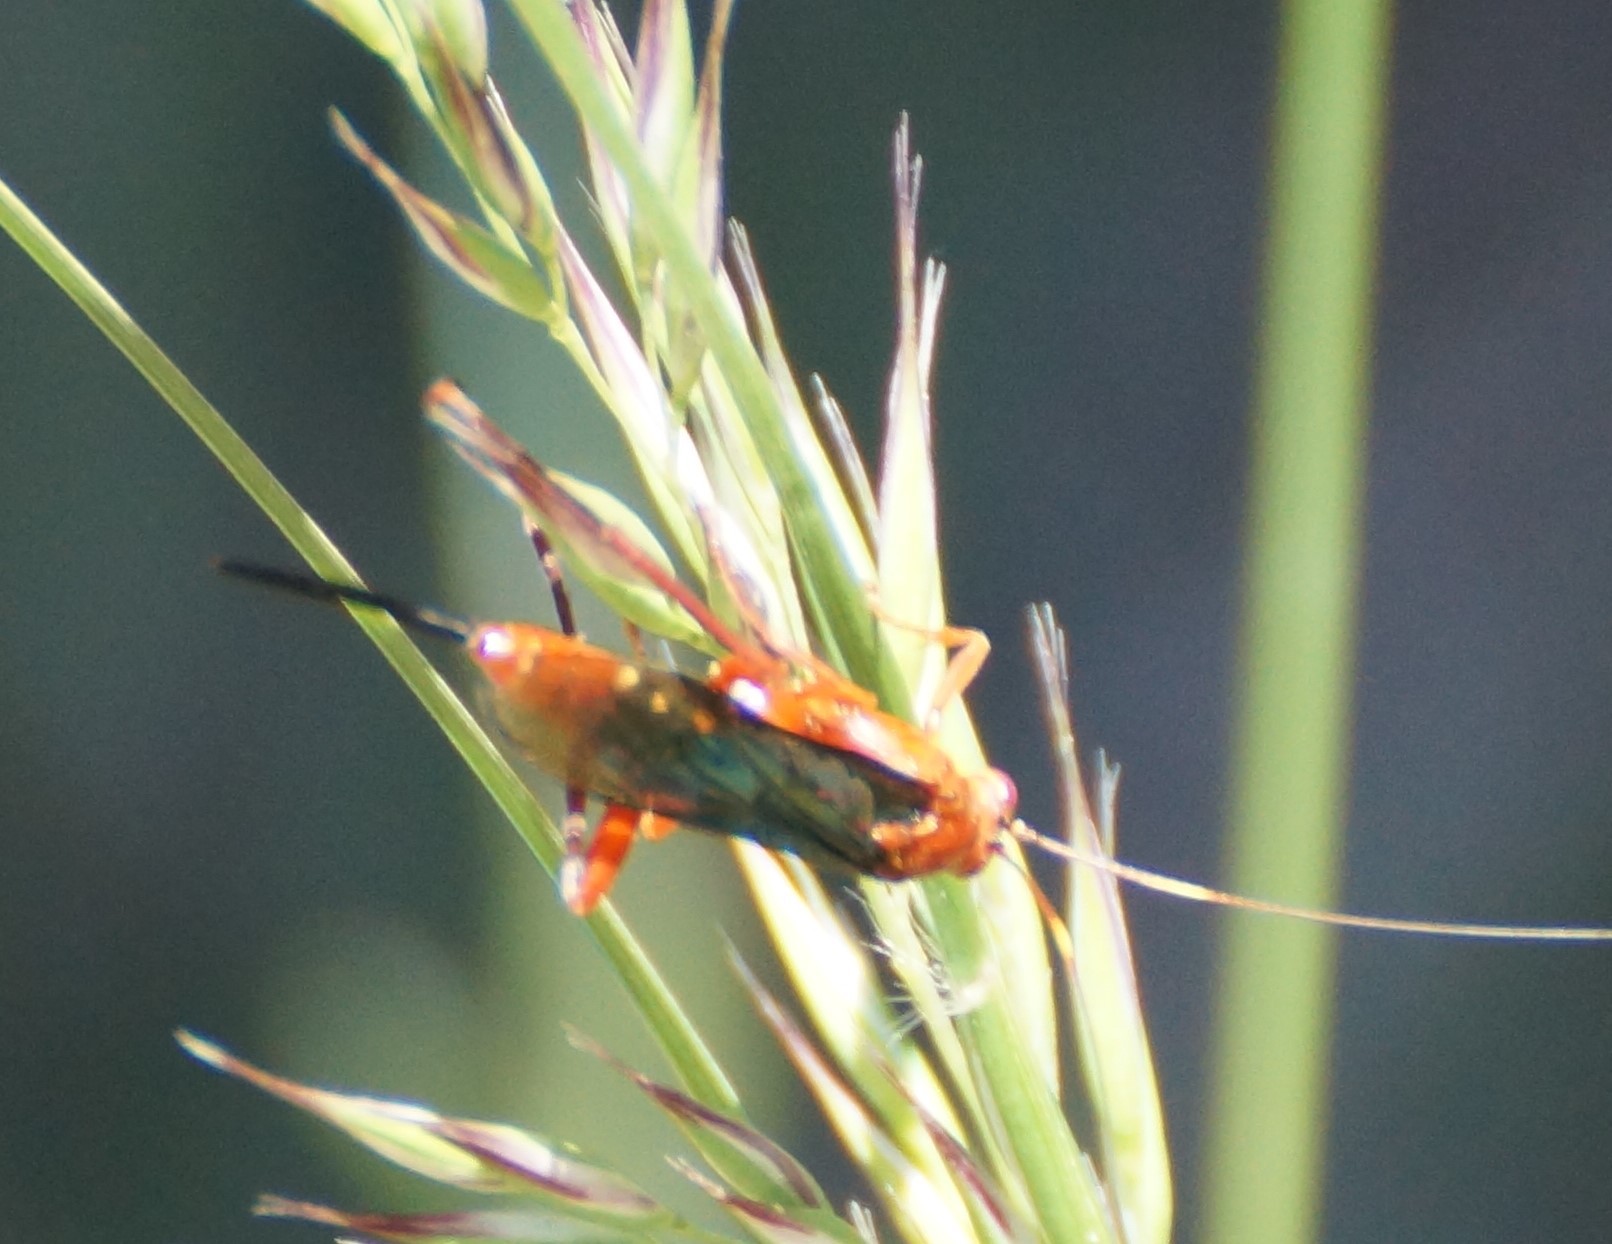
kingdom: Animalia
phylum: Arthropoda
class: Insecta
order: Hymenoptera
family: Ichneumonidae
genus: Lissopimpla
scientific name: Lissopimpla excelsa
